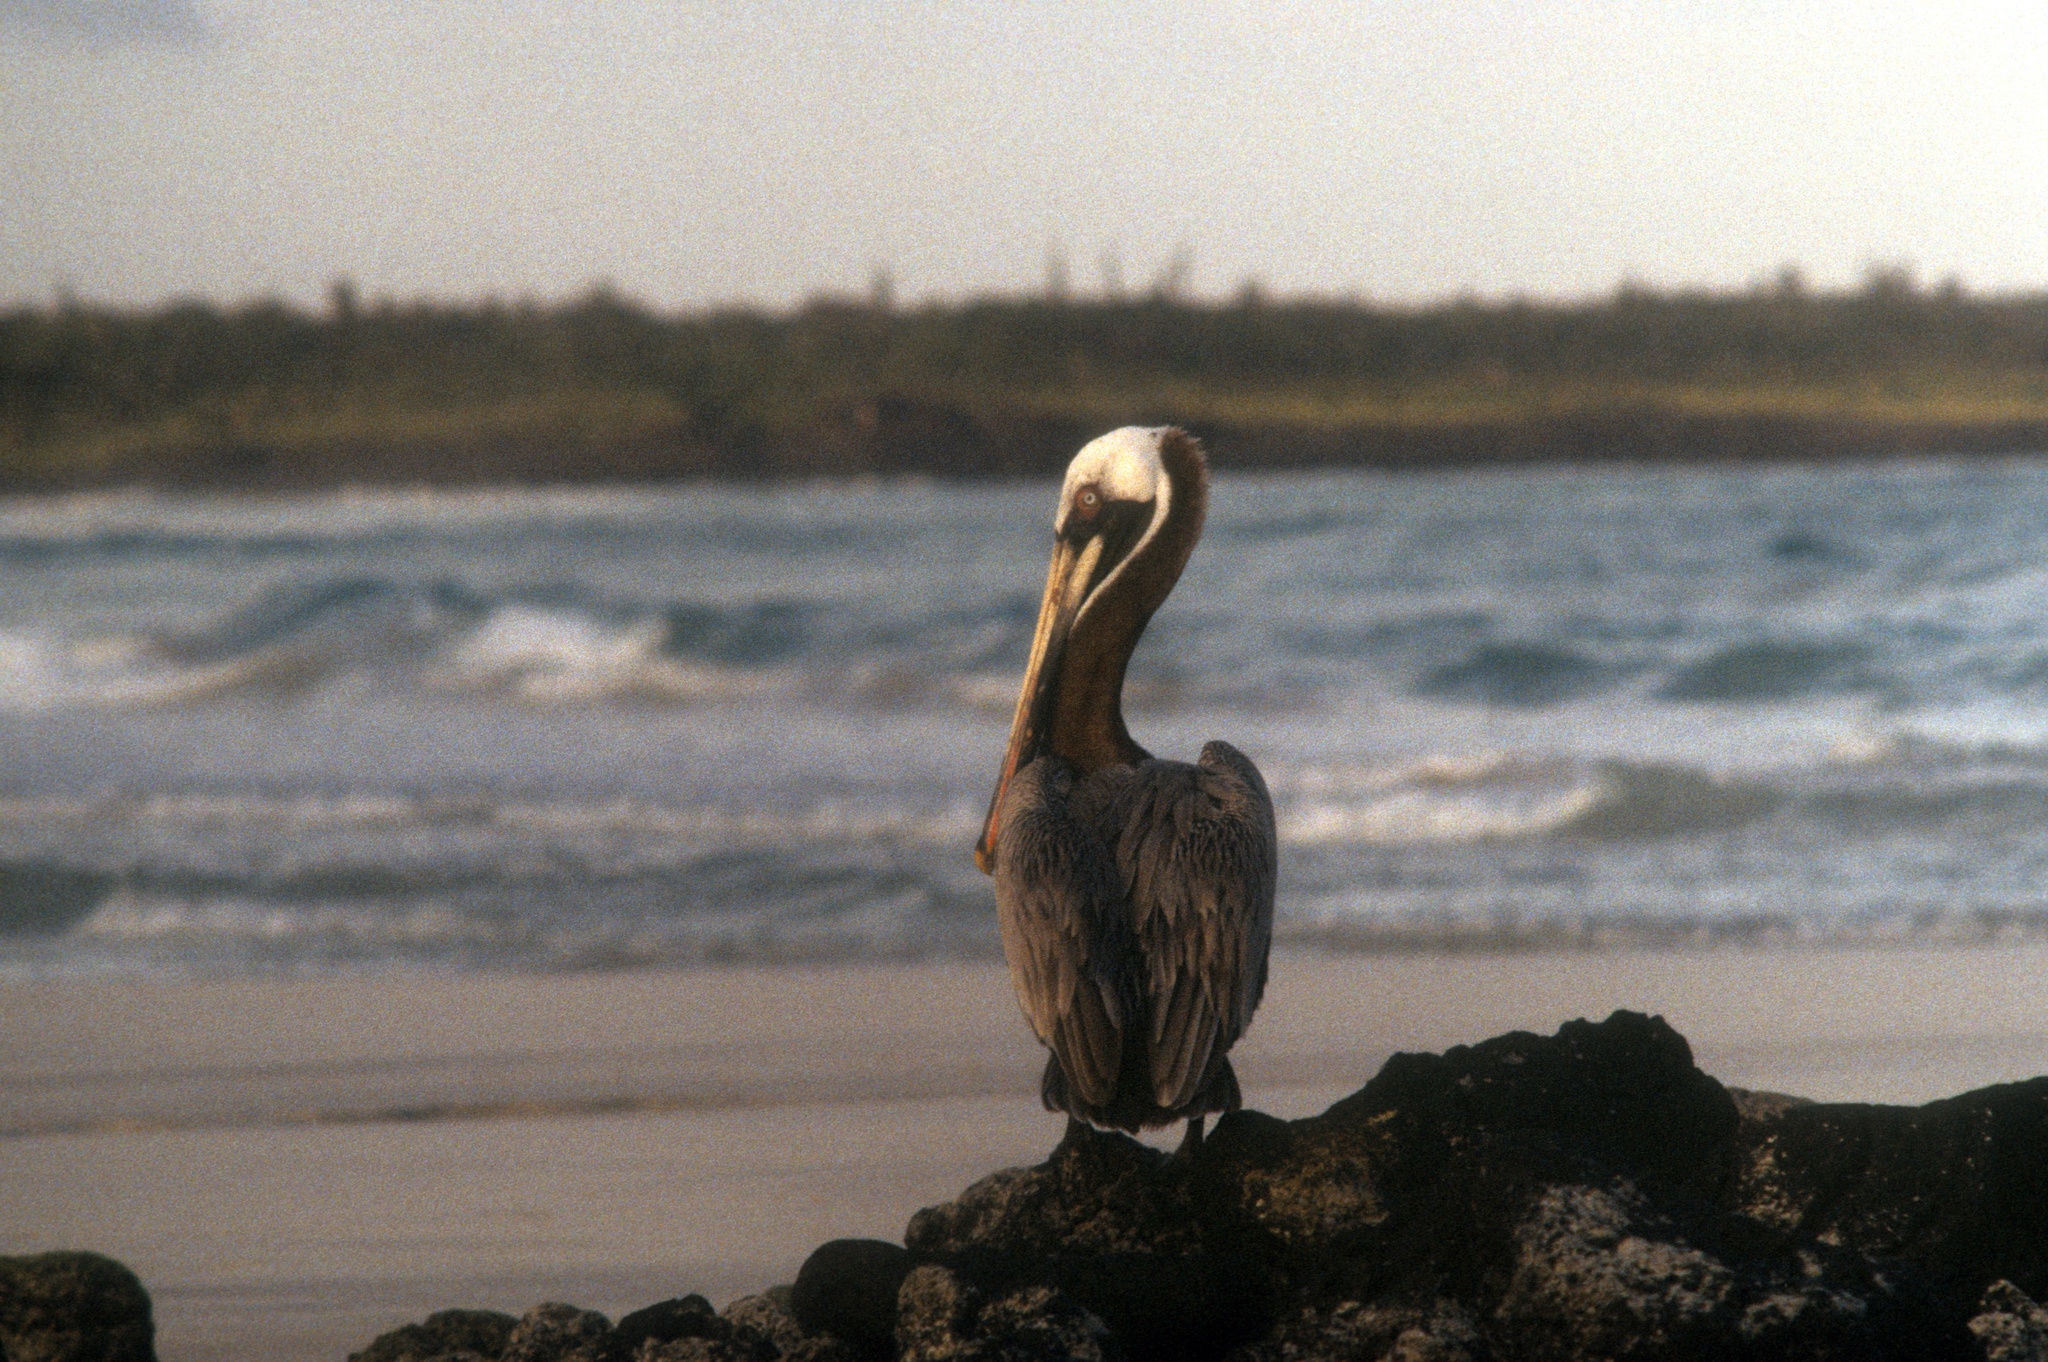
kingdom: Animalia
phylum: Chordata
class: Aves
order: Pelecaniformes
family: Pelecanidae
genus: Pelecanus
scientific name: Pelecanus occidentalis
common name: Brown pelican
